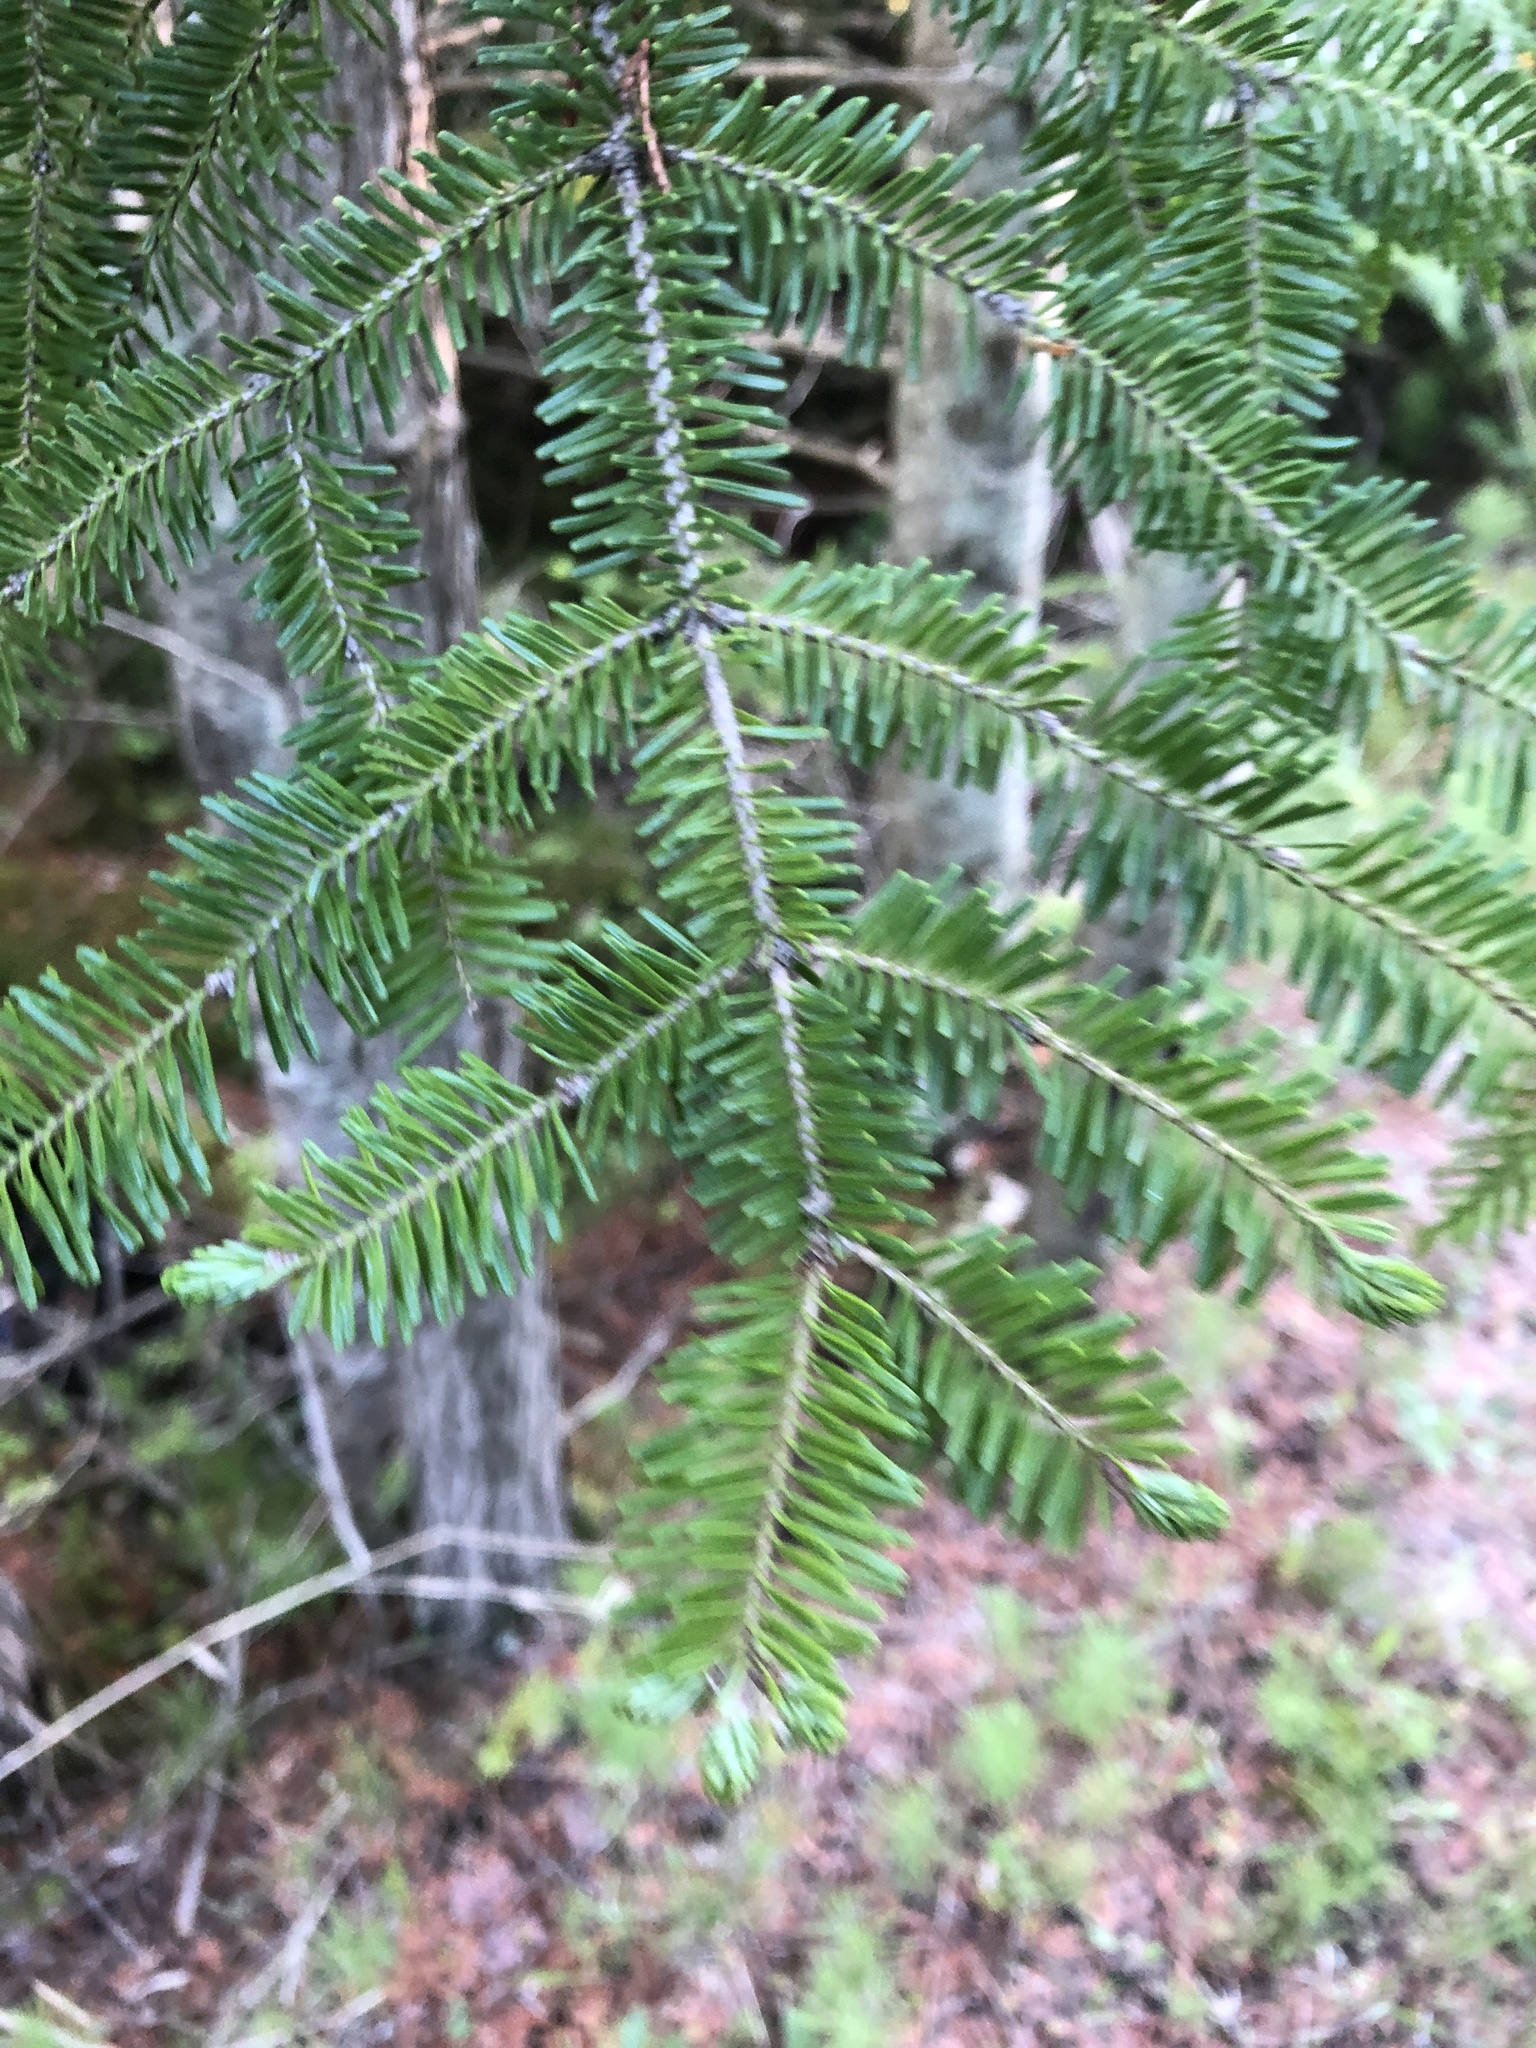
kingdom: Plantae
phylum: Tracheophyta
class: Pinopsida
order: Pinales
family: Pinaceae
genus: Abies
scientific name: Abies balsamea
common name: Balsam fir
